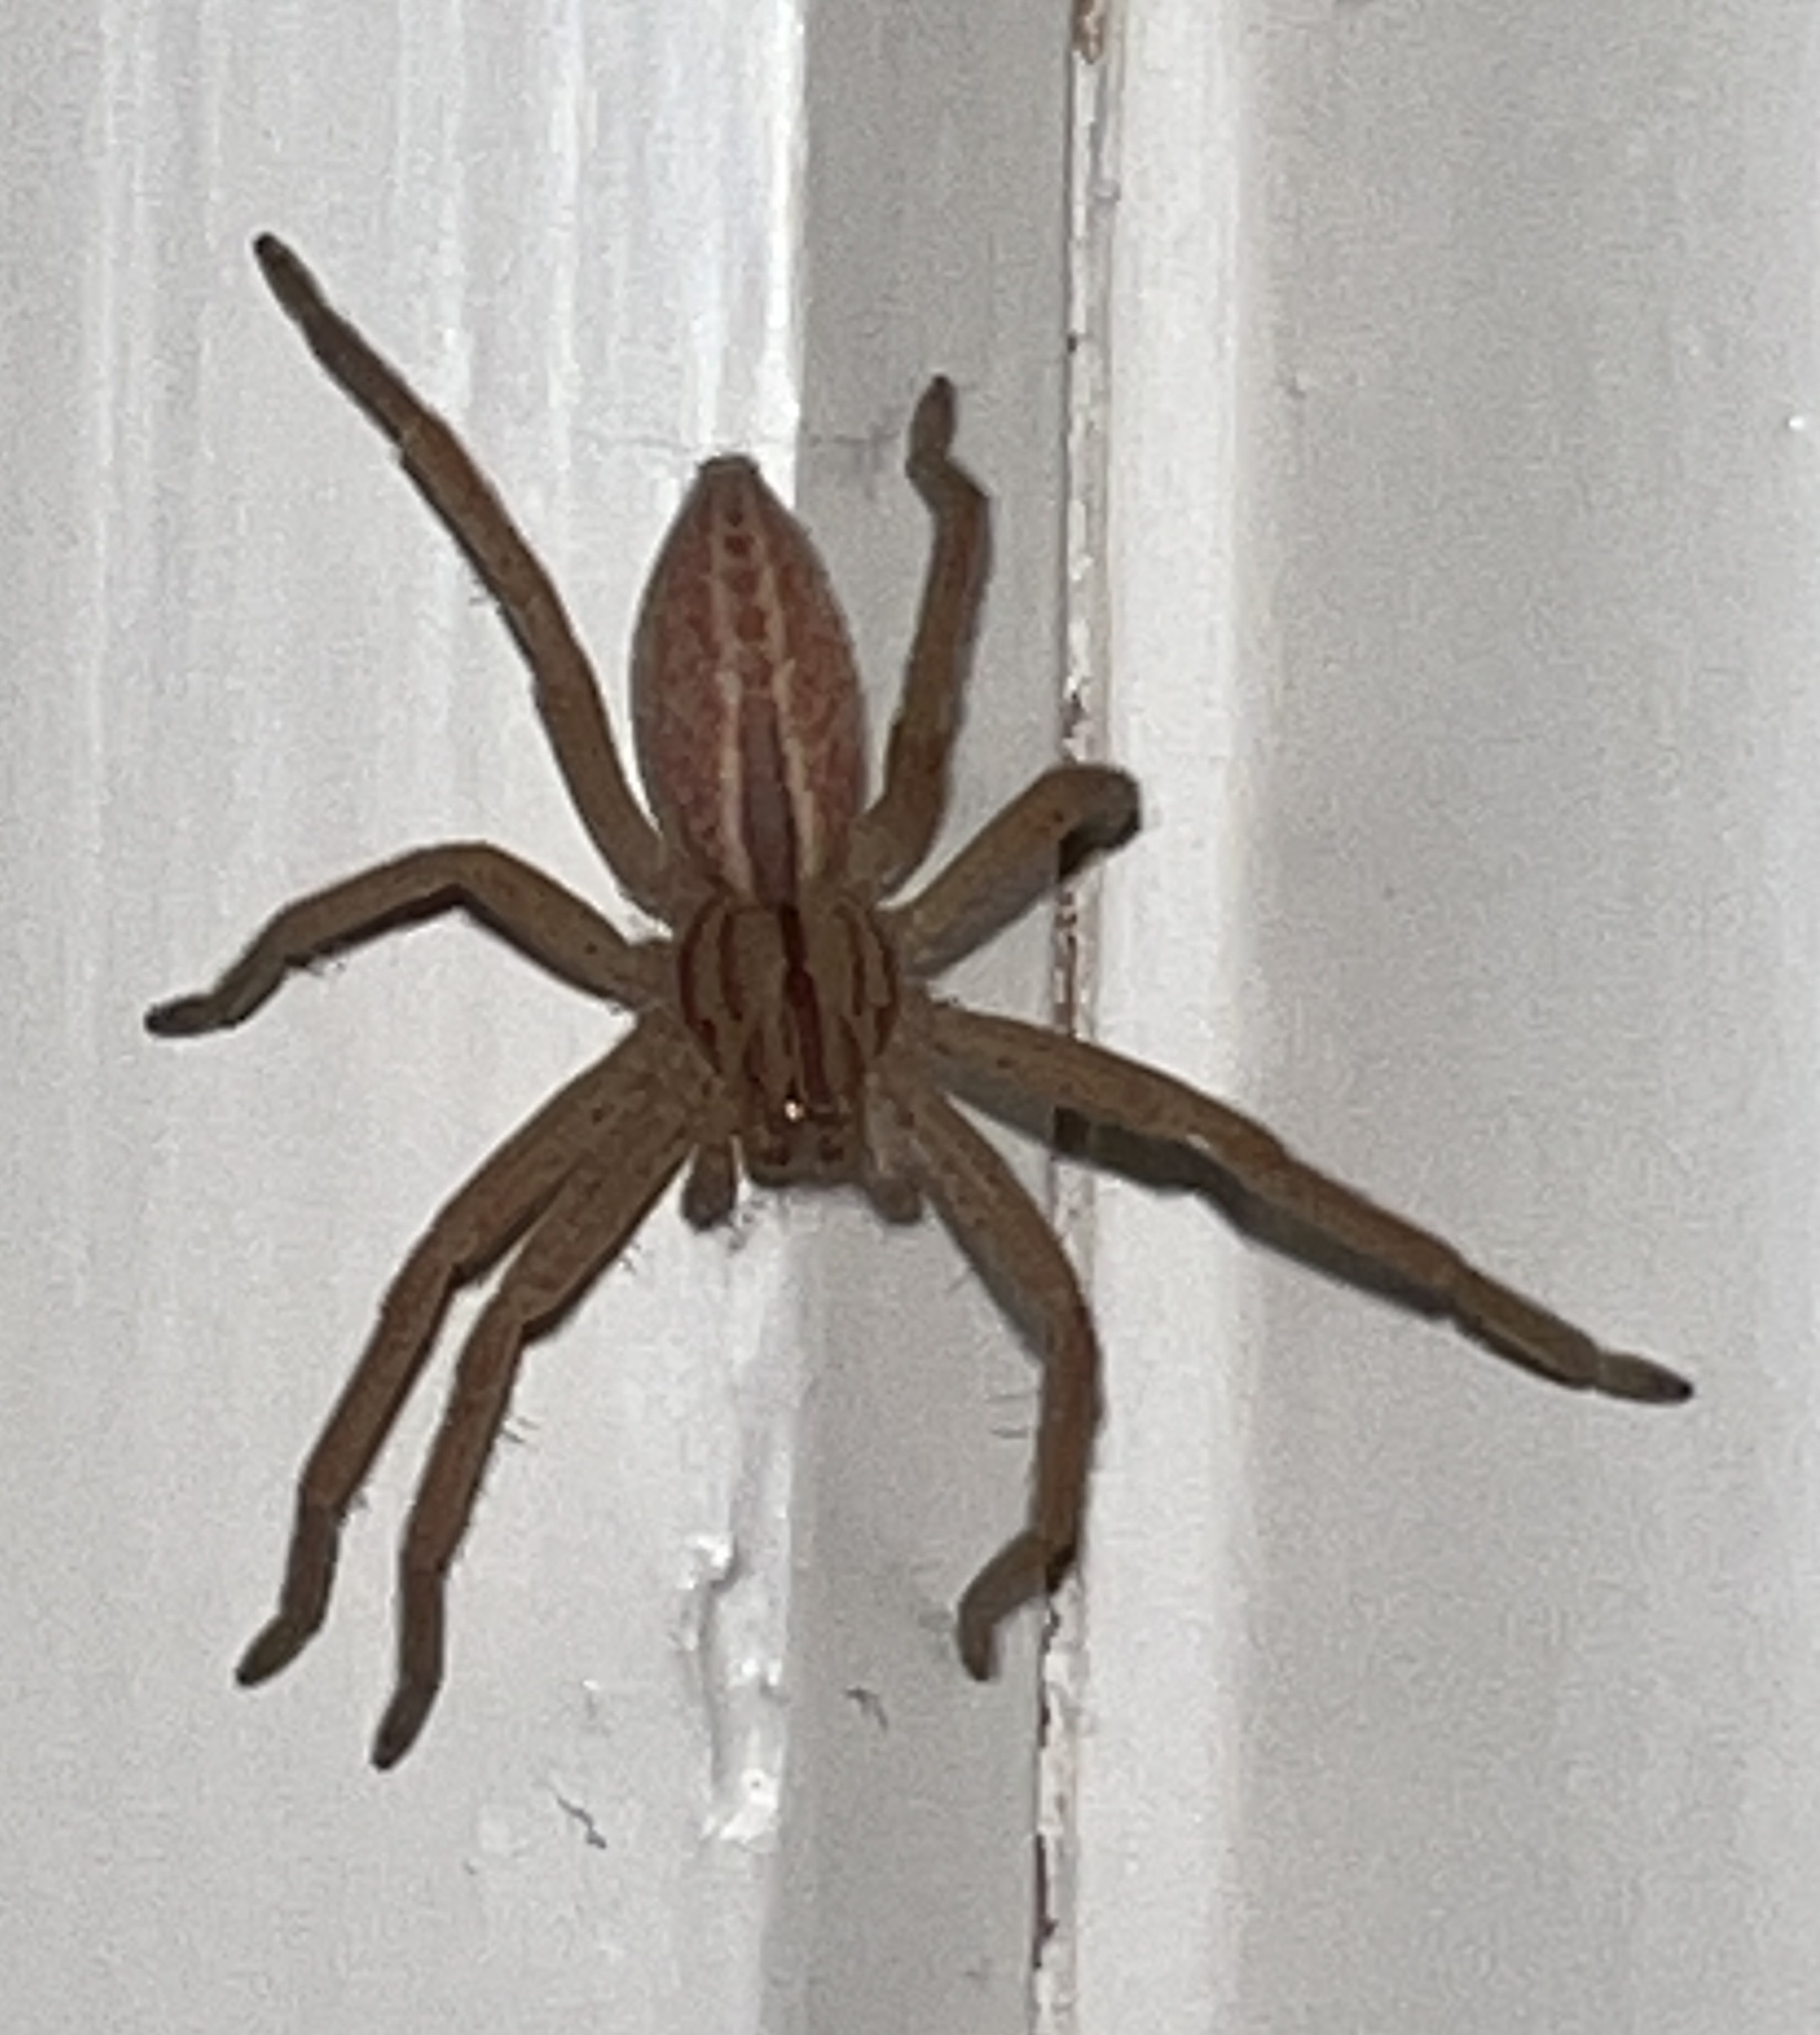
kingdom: Animalia
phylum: Arthropoda
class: Arachnida
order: Araneae
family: Sparassidae
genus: Micrommata
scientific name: Micrommata virescens
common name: Green spider
